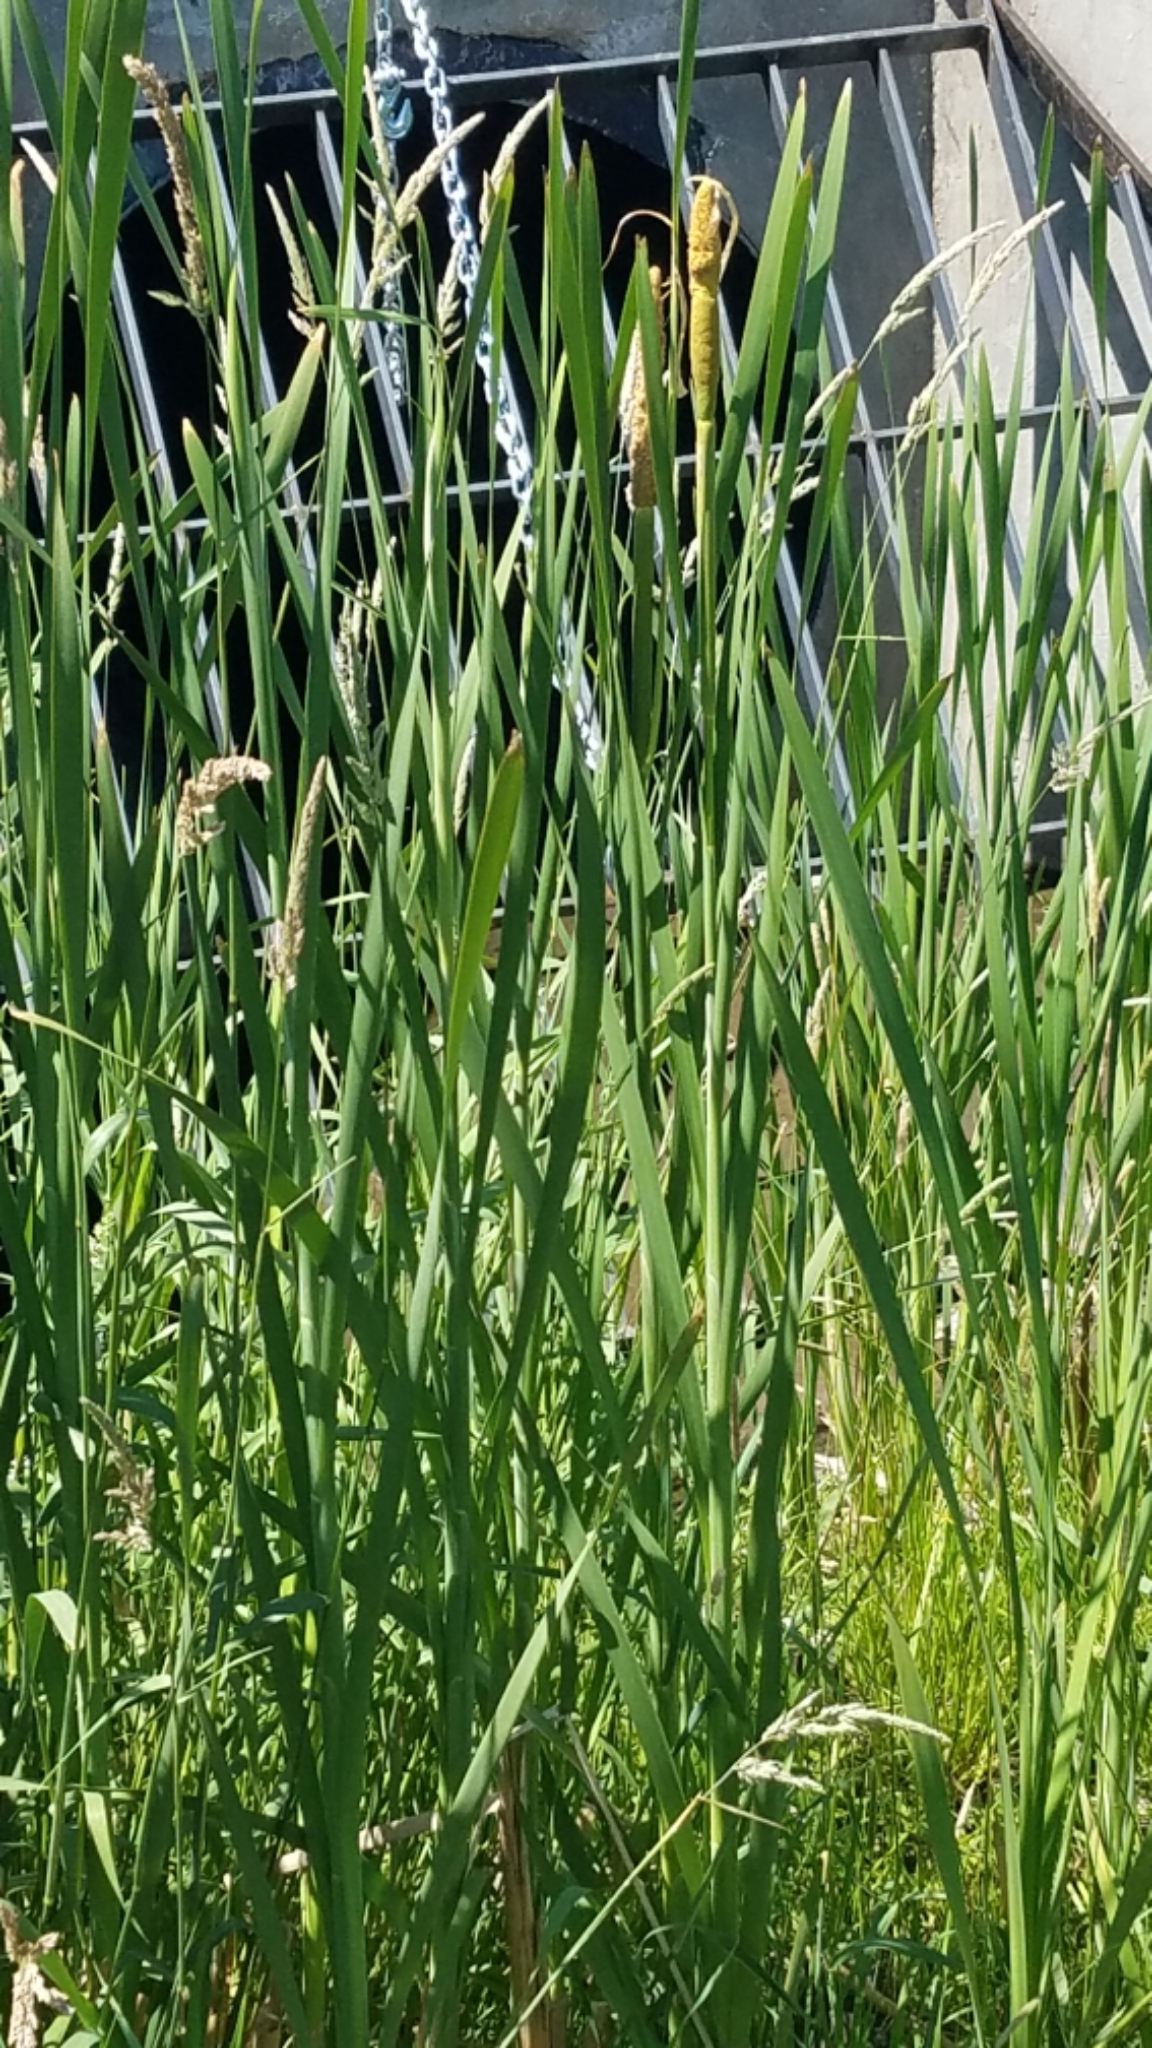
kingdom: Plantae
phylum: Tracheophyta
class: Liliopsida
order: Poales
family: Typhaceae
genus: Typha
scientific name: Typha latifolia
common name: Broadleaf cattail
